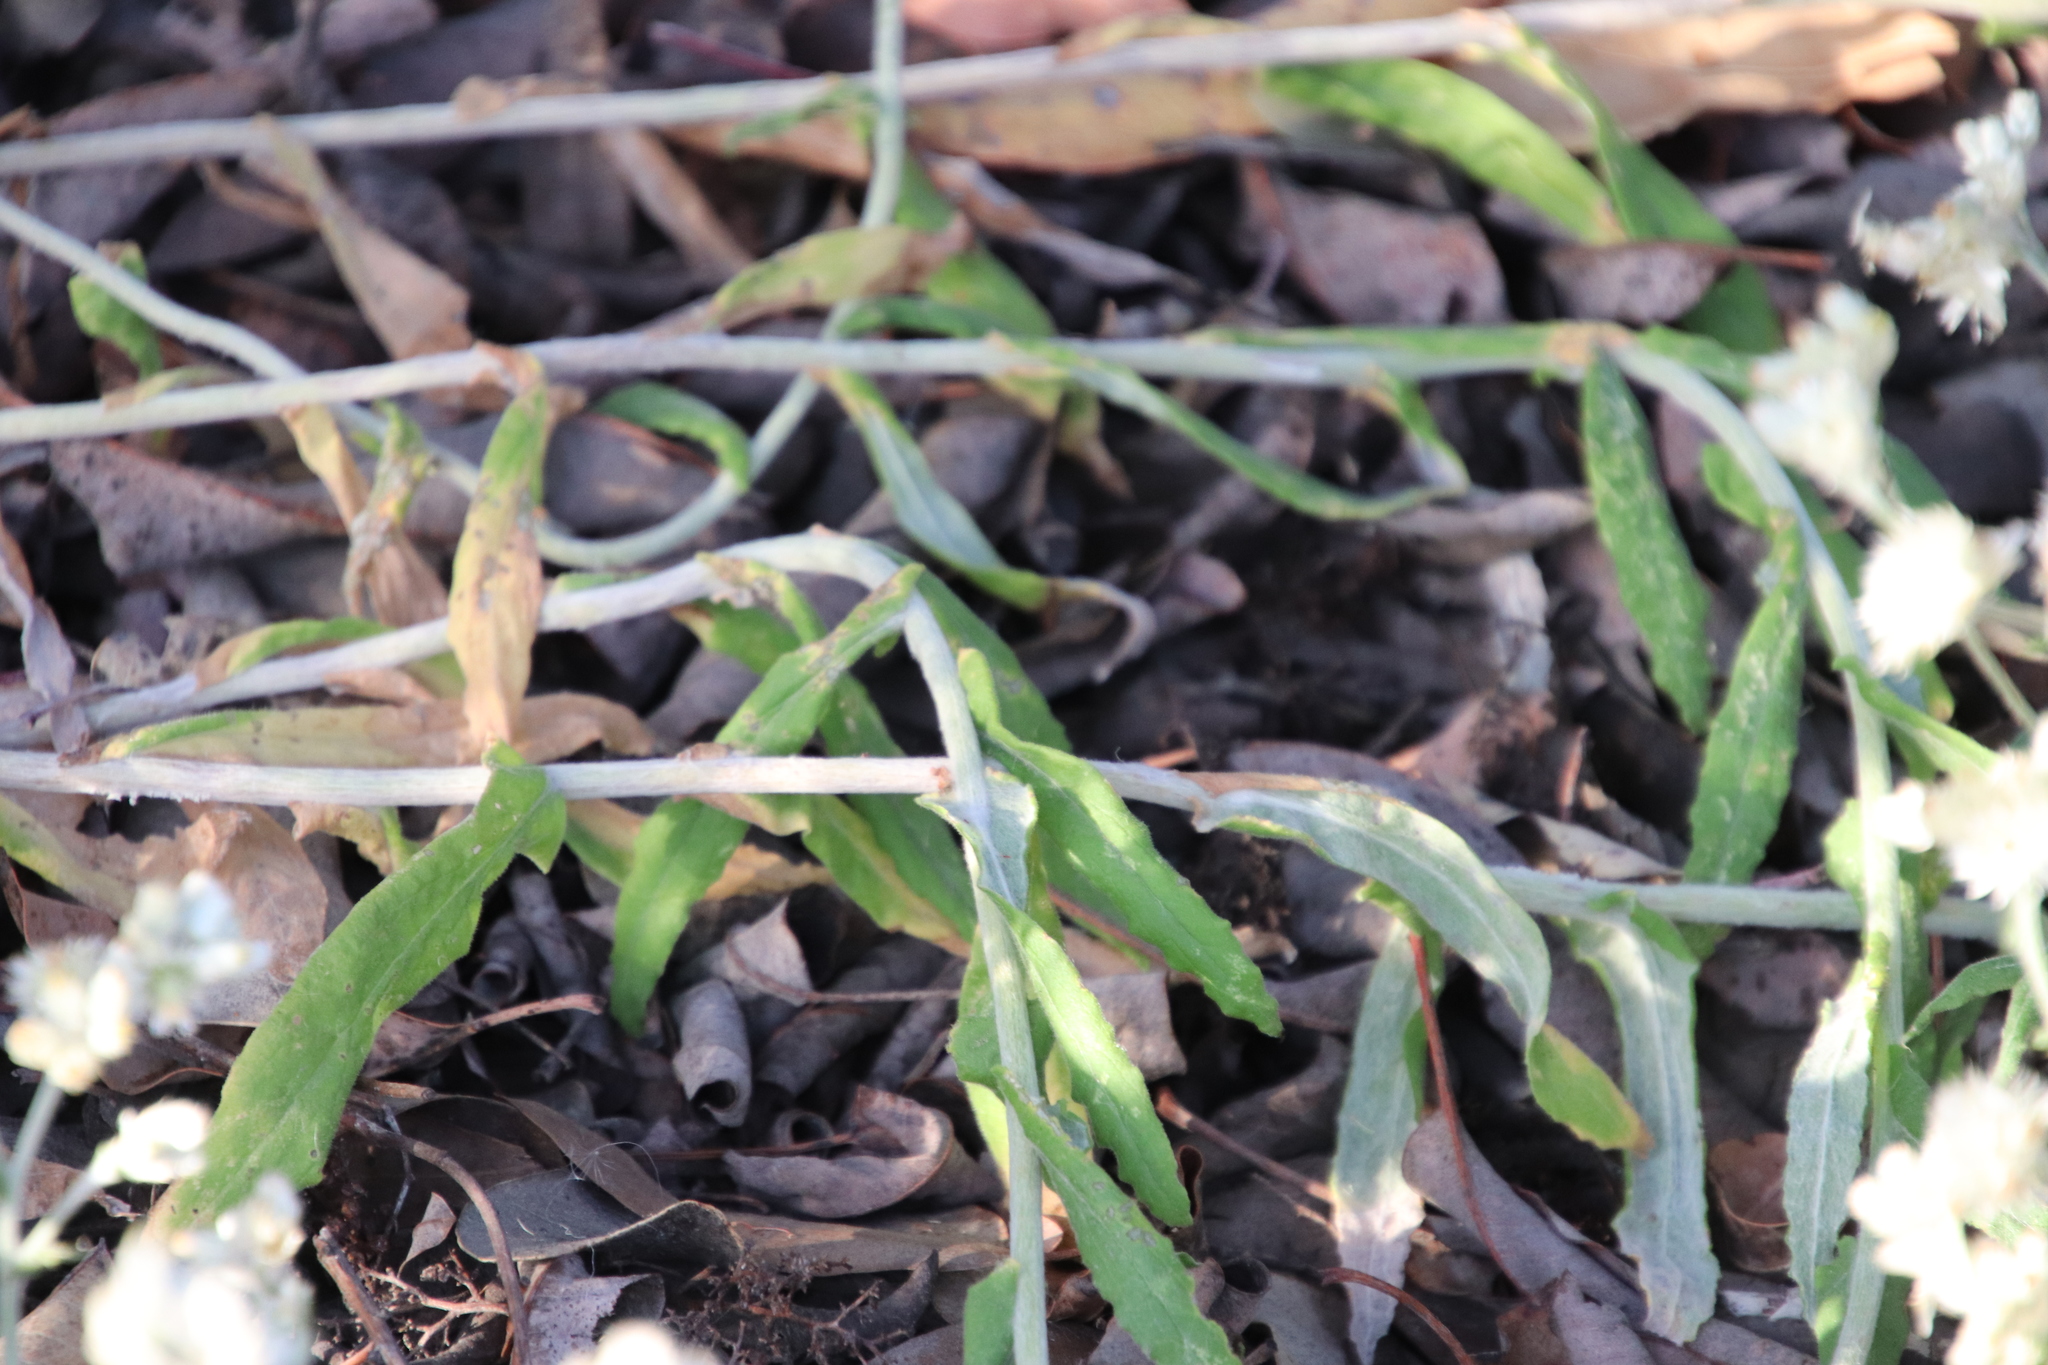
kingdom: Plantae
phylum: Tracheophyta
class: Magnoliopsida
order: Asterales
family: Asteraceae
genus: Pseudognaphalium
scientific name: Pseudognaphalium biolettii
